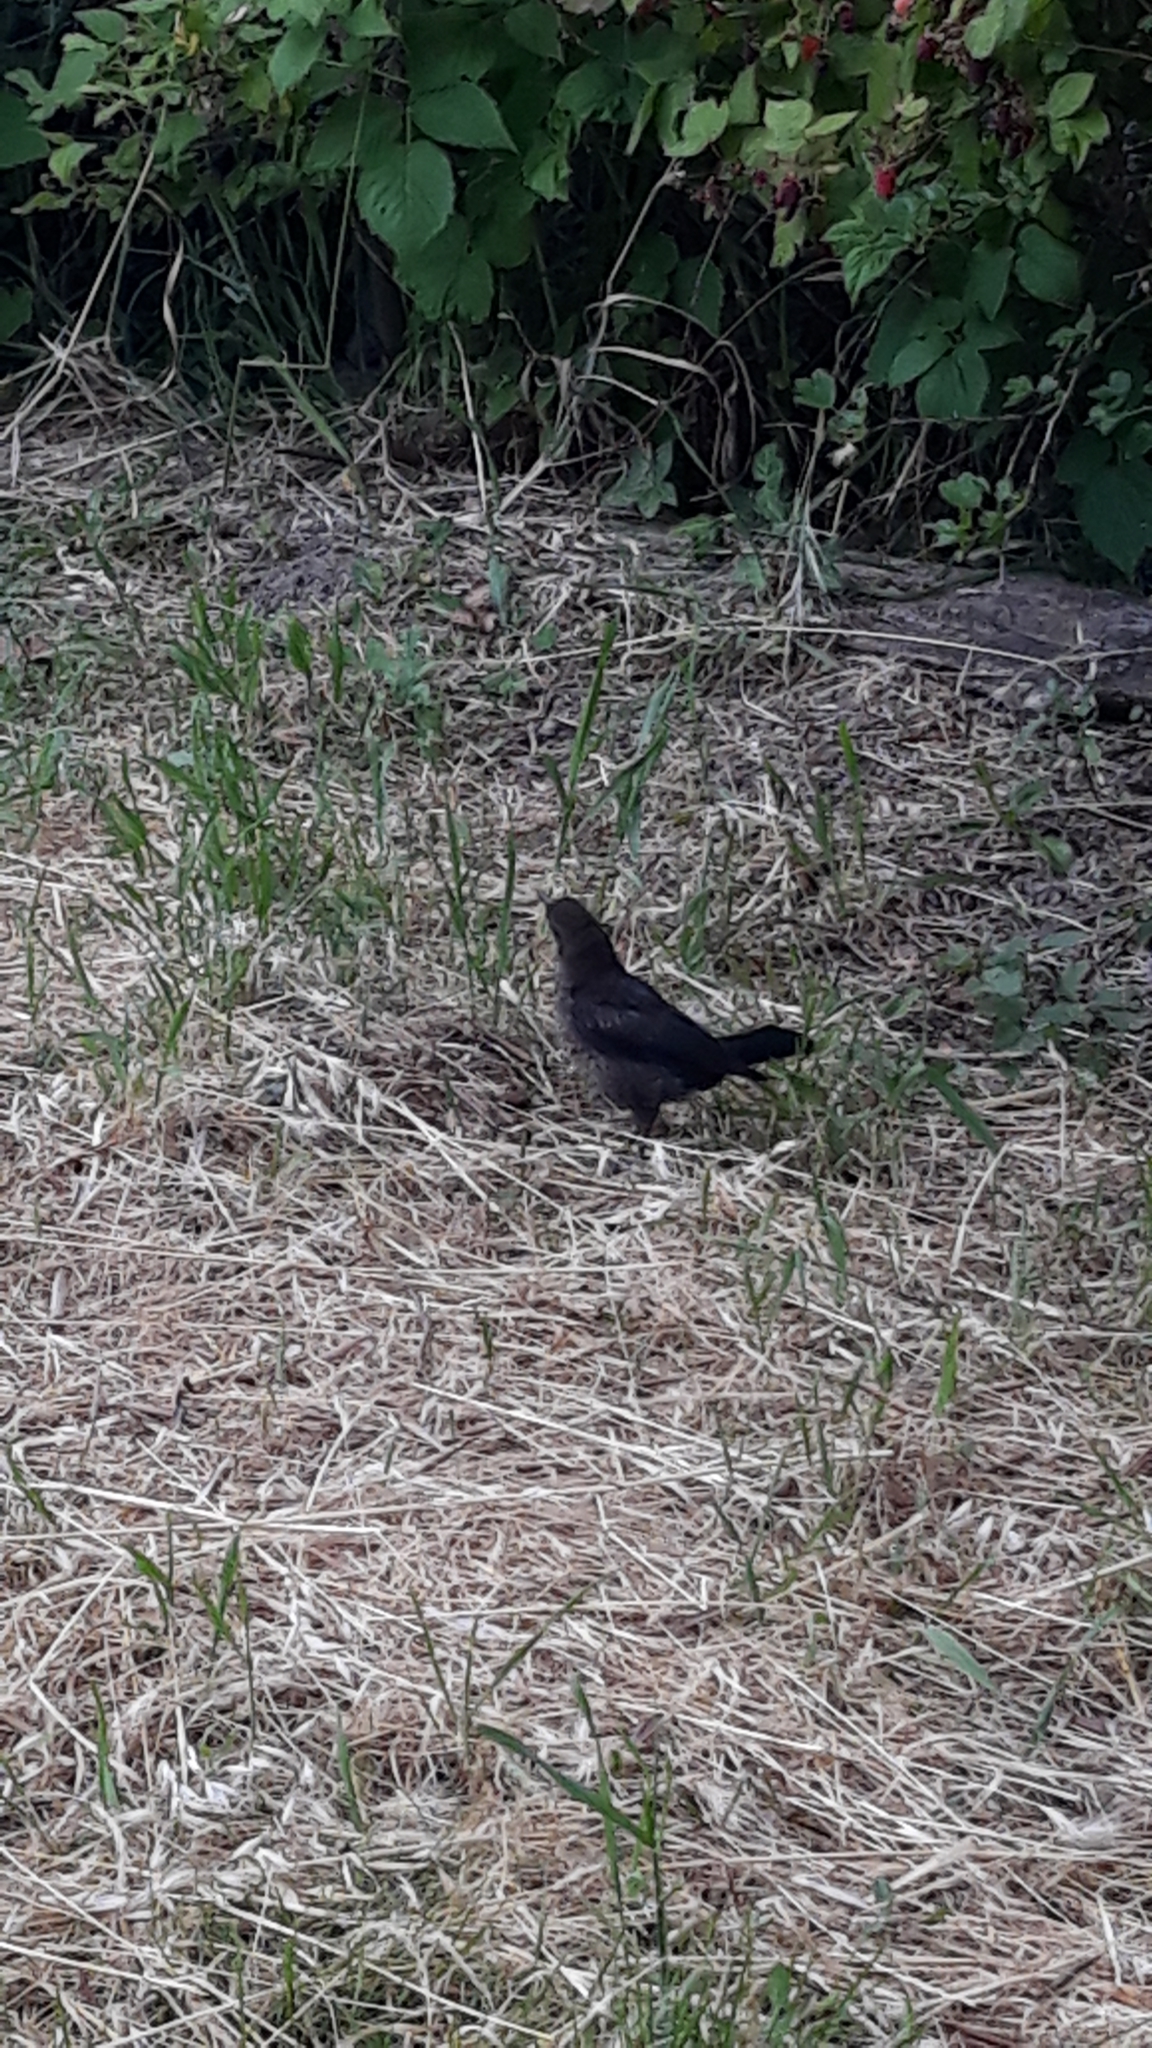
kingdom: Animalia
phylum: Chordata
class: Aves
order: Passeriformes
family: Turdidae
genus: Turdus
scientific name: Turdus merula
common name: Common blackbird
